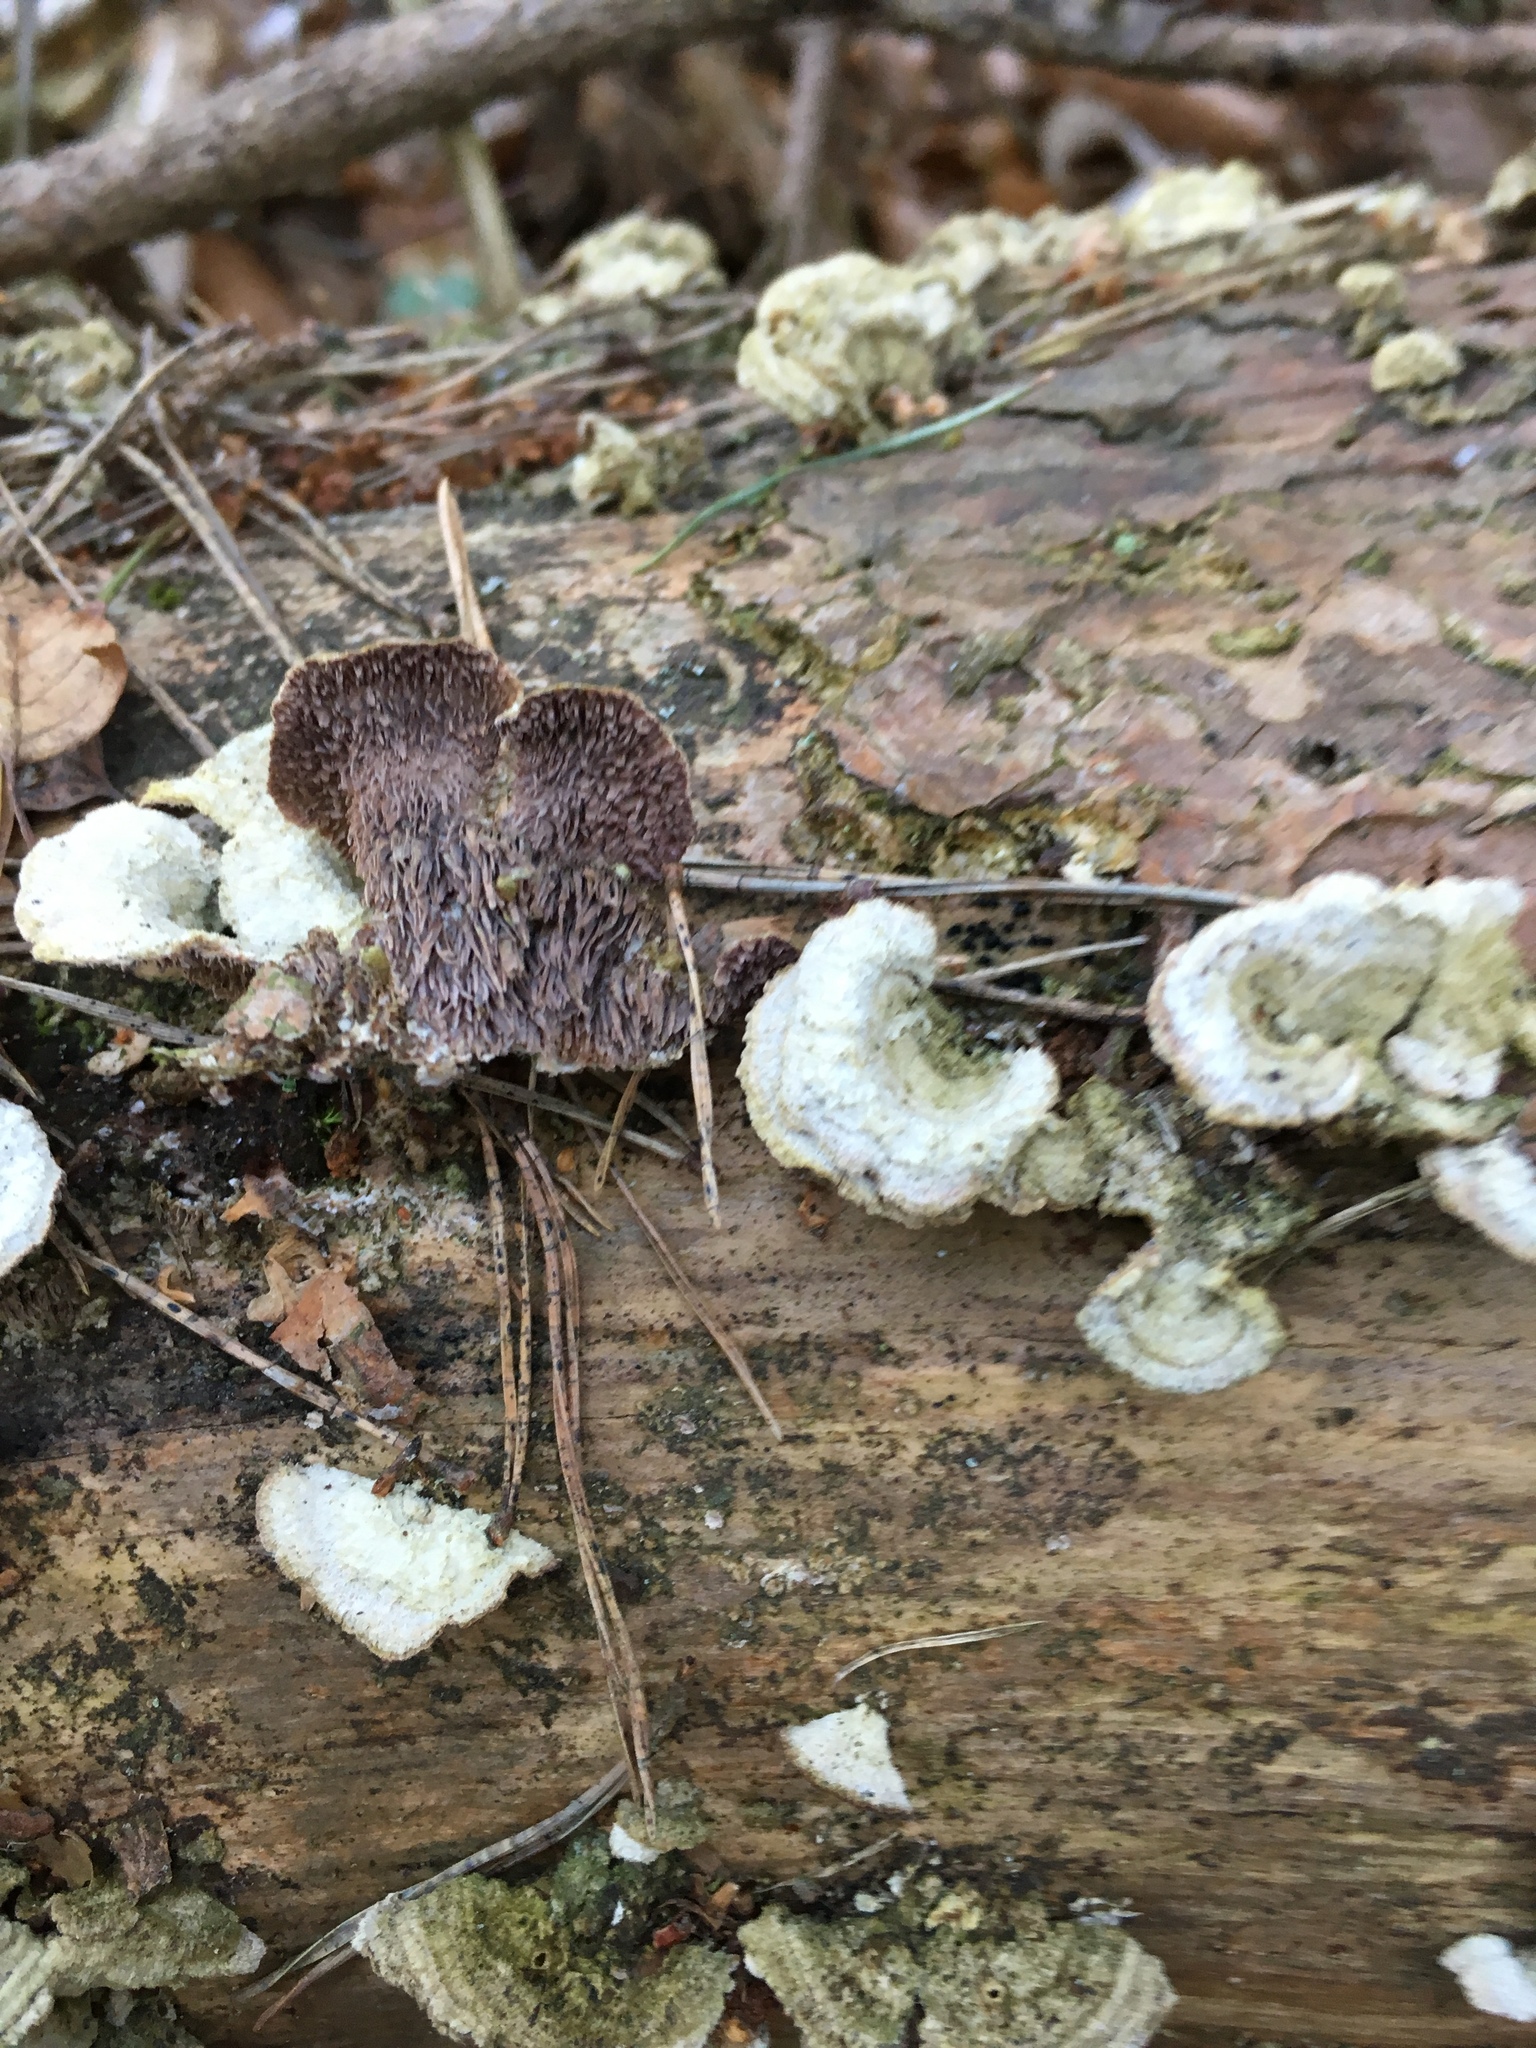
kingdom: Fungi
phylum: Basidiomycota
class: Agaricomycetes
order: Hymenochaetales
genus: Trichaptum
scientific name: Trichaptum fuscoviolaceum
